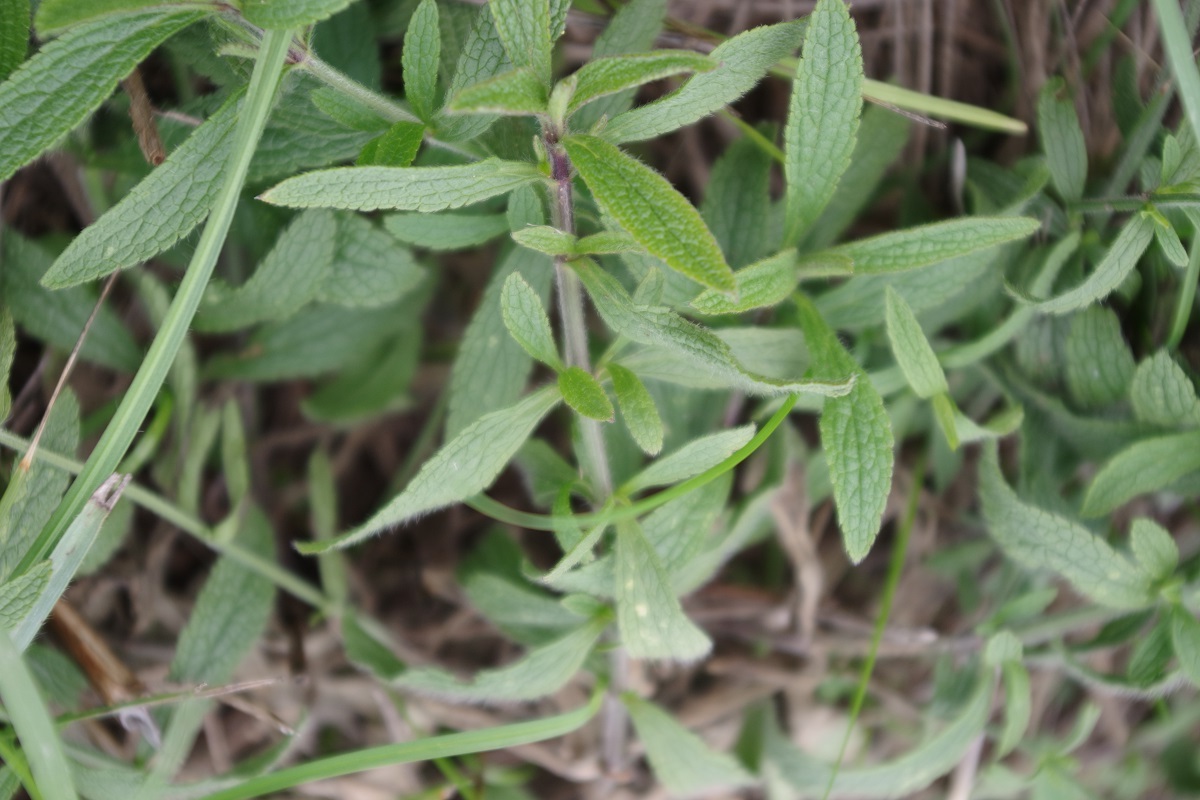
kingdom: Plantae
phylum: Tracheophyta
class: Magnoliopsida
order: Lamiales
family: Lamiaceae
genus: Stachys
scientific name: Stachys recta
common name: Perennial yellow-woundwort
